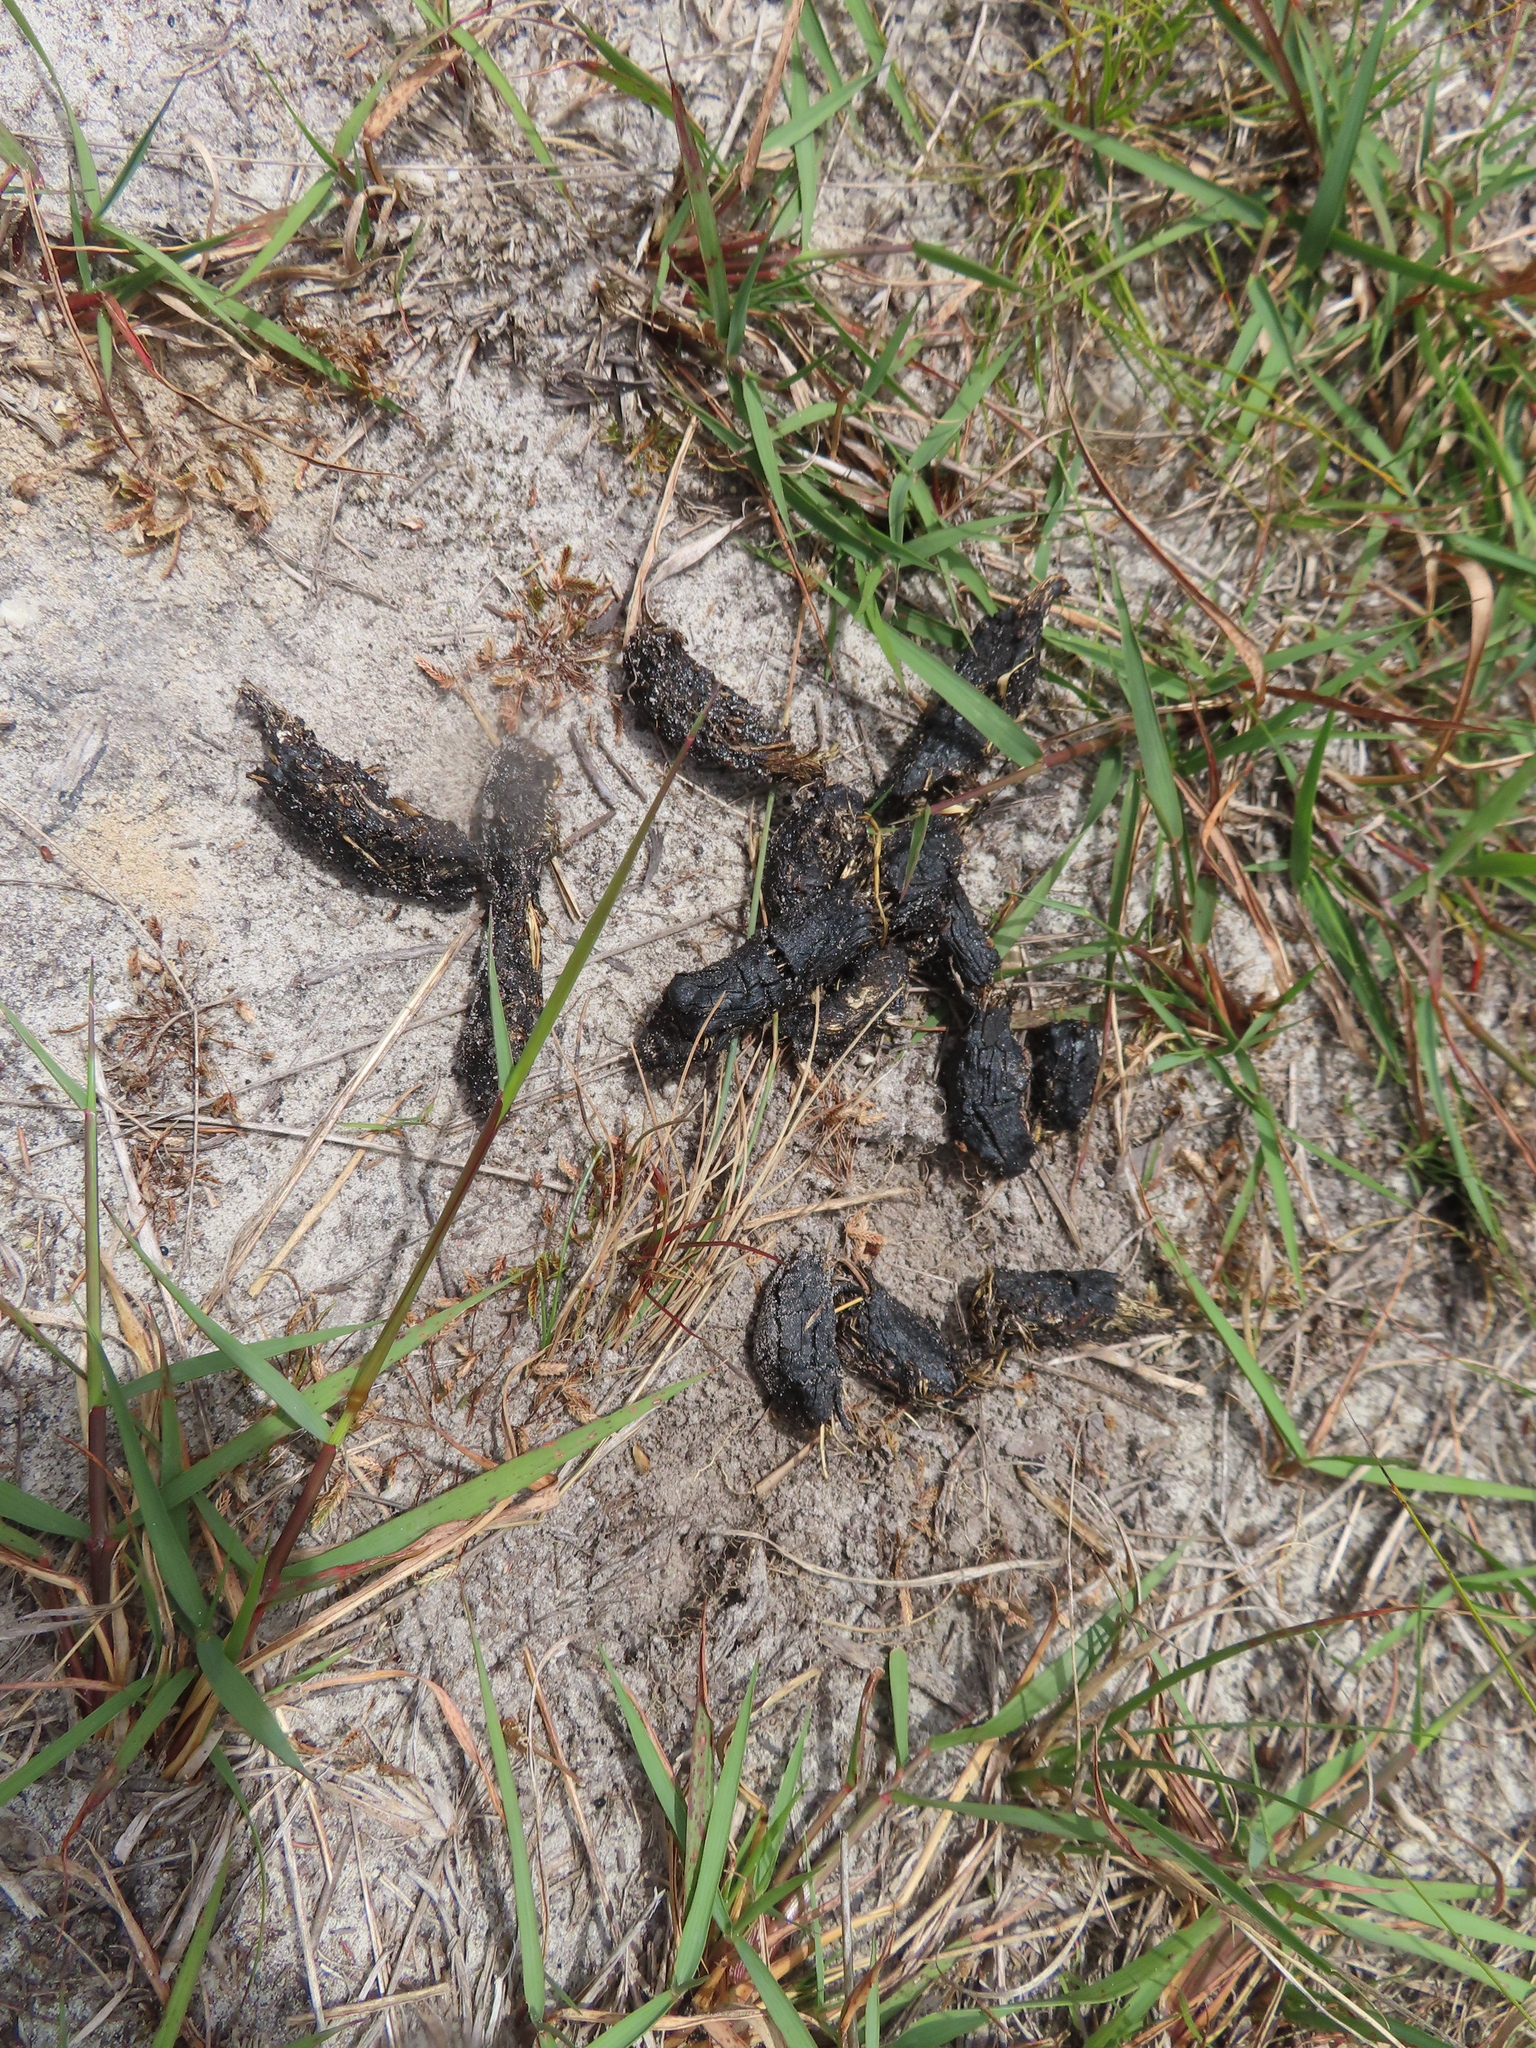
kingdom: Animalia
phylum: Chordata
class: Mammalia
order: Rodentia
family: Hystricidae
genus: Hystrix
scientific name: Hystrix africaeaustralis
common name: Cape porcupine
